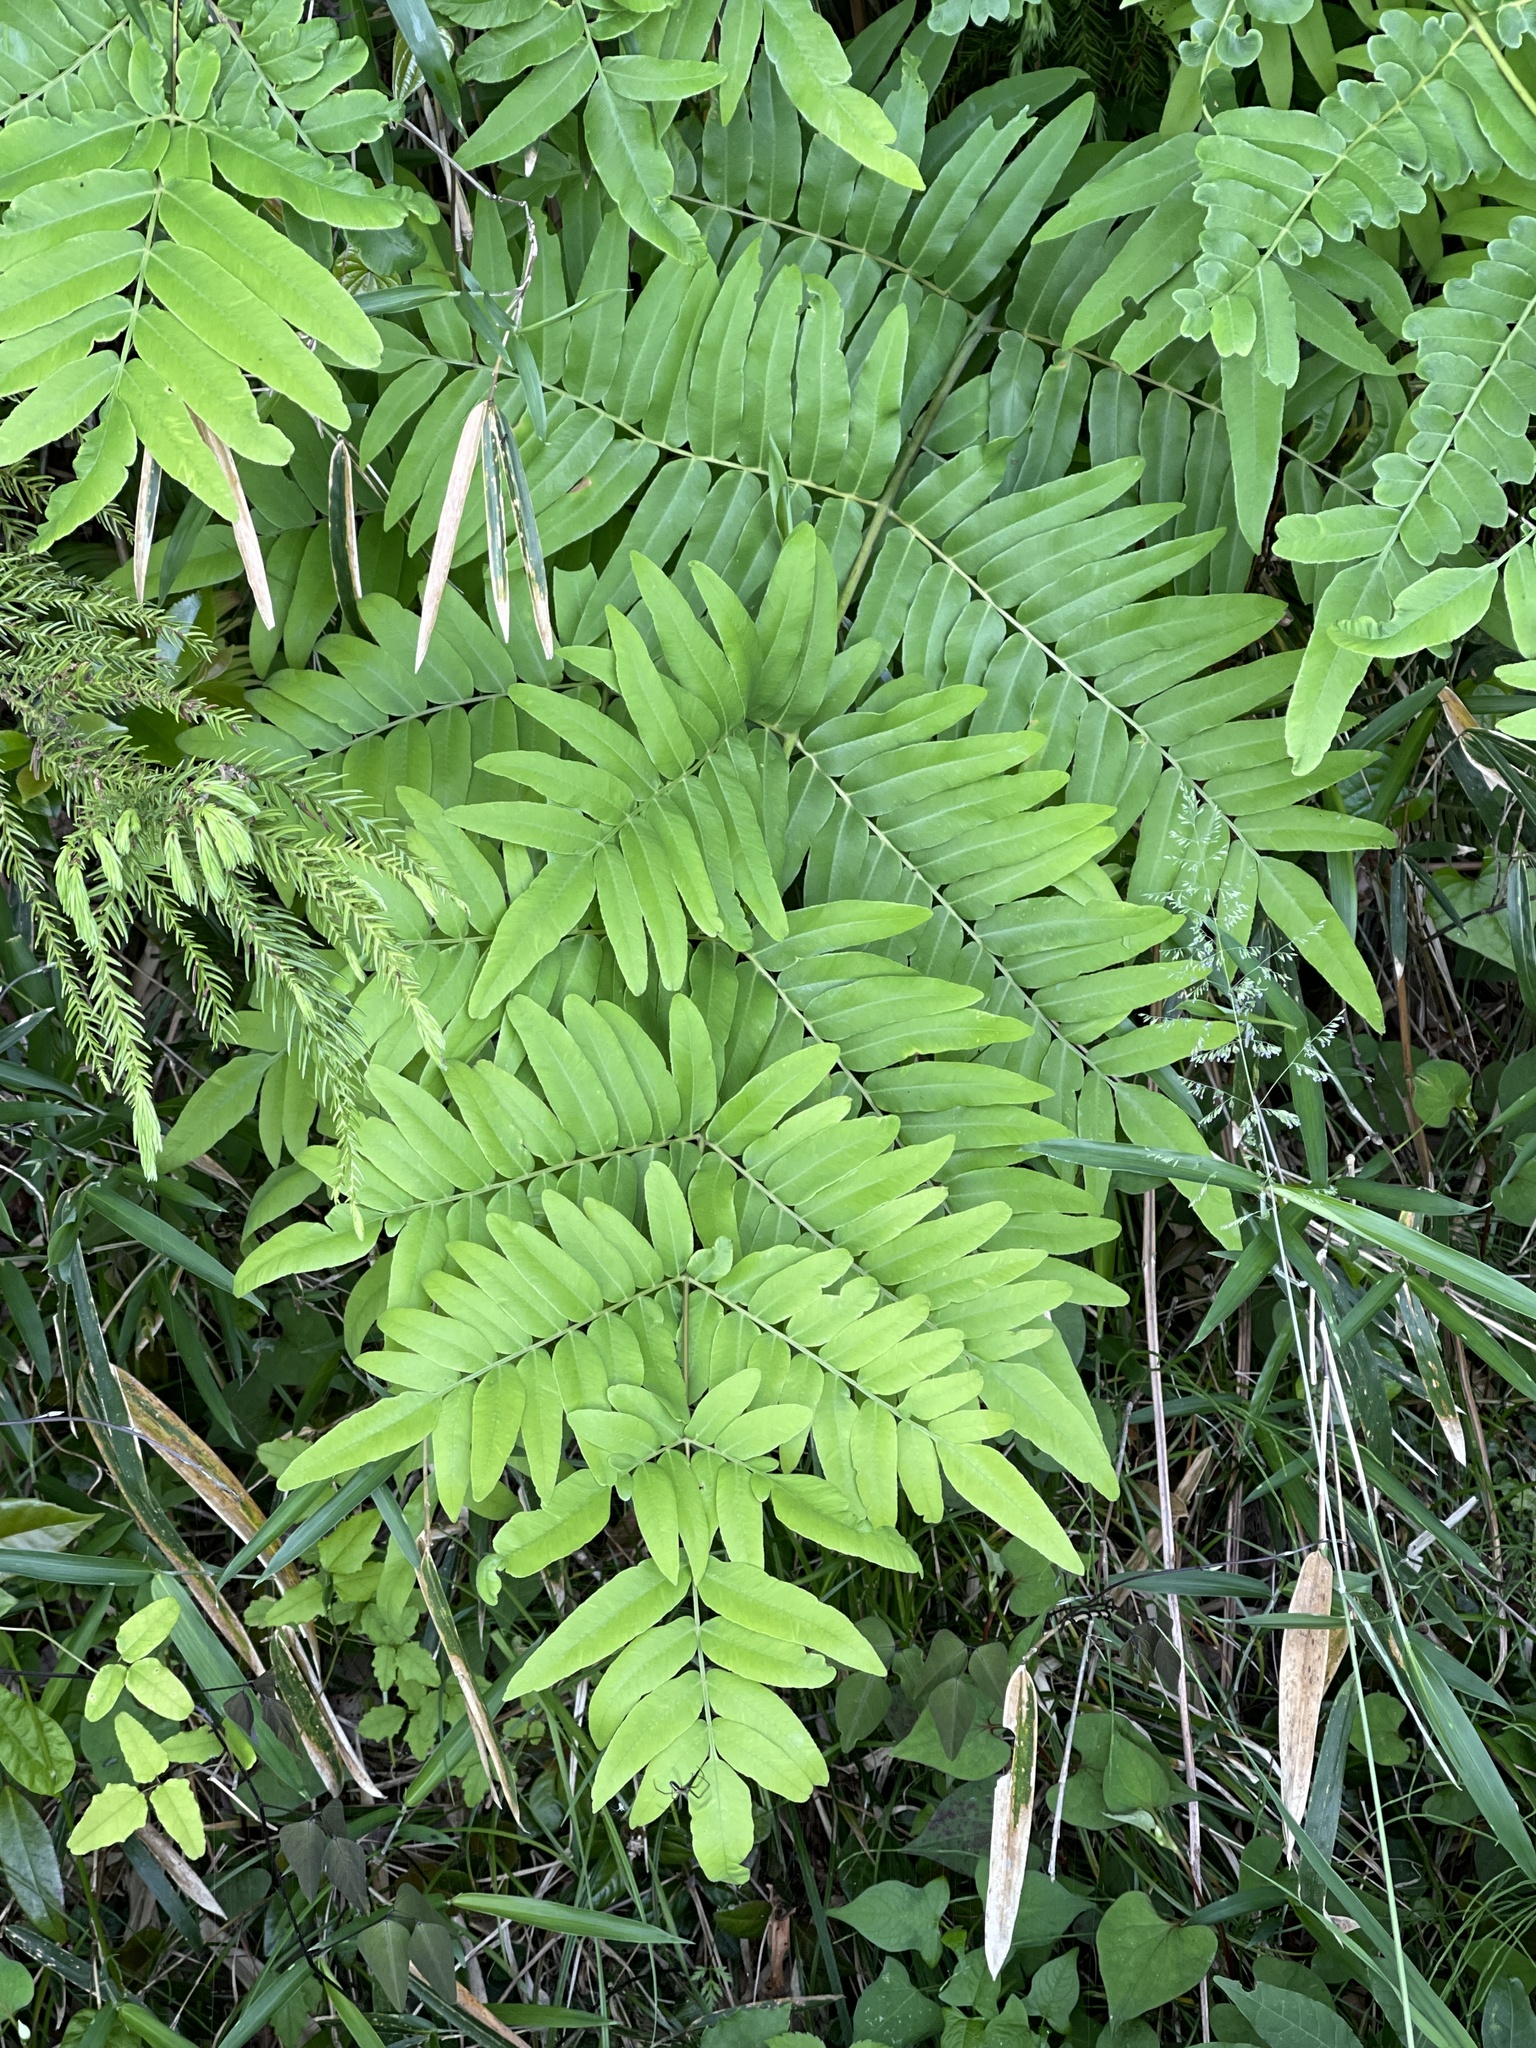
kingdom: Plantae
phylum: Tracheophyta
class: Polypodiopsida
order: Osmundales
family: Osmundaceae
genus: Osmunda
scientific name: Osmunda japonica
